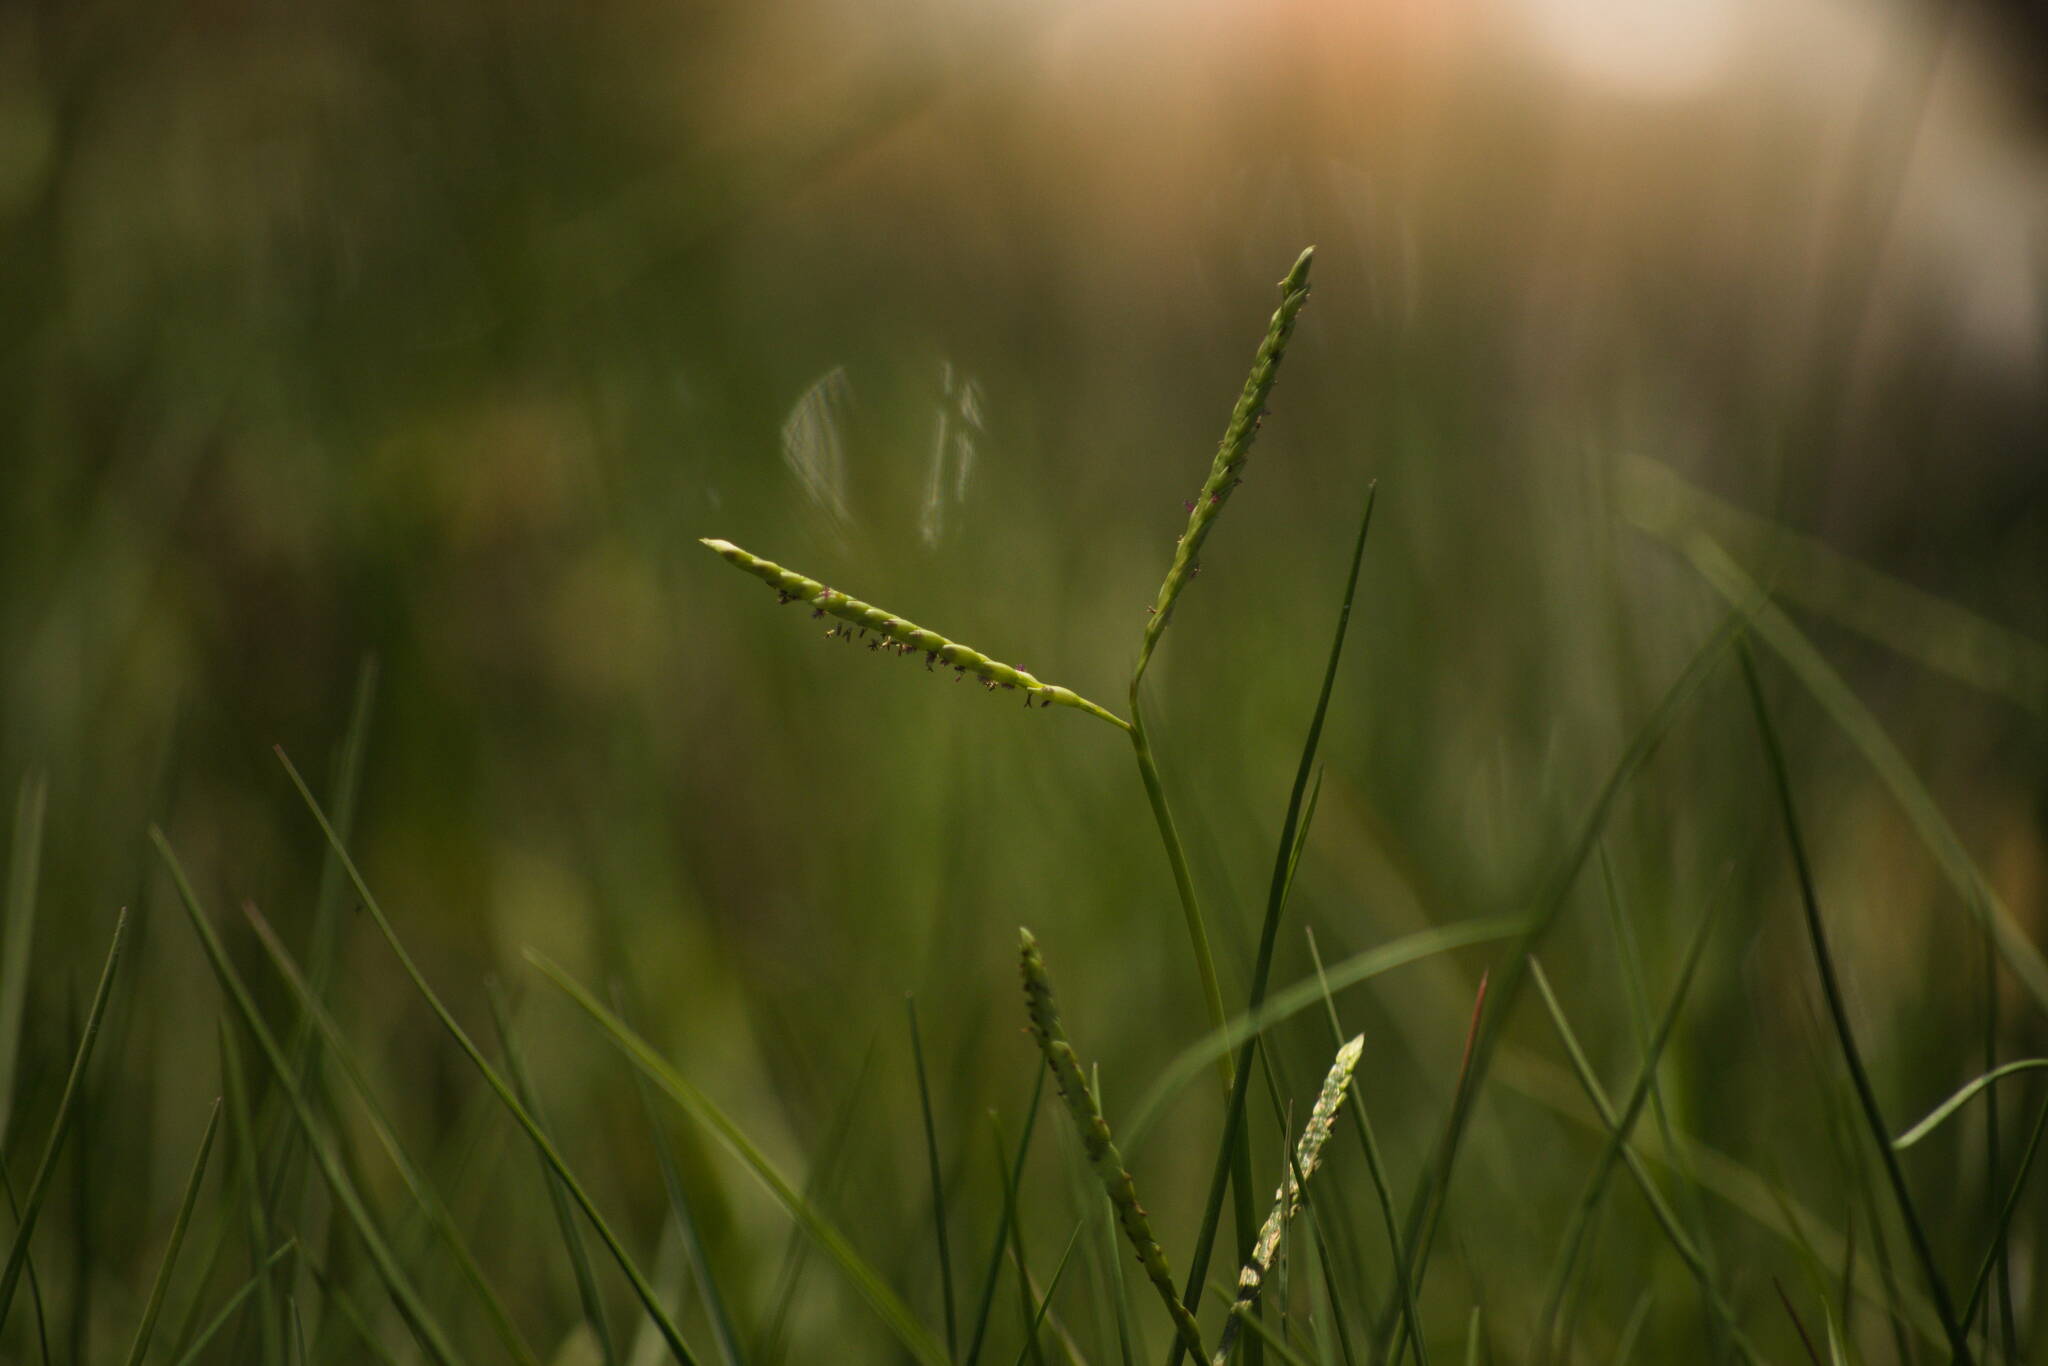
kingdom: Plantae
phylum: Tracheophyta
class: Liliopsida
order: Poales
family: Poaceae
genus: Paspalum
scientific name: Paspalum vaginatum
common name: Seashore paspalum
